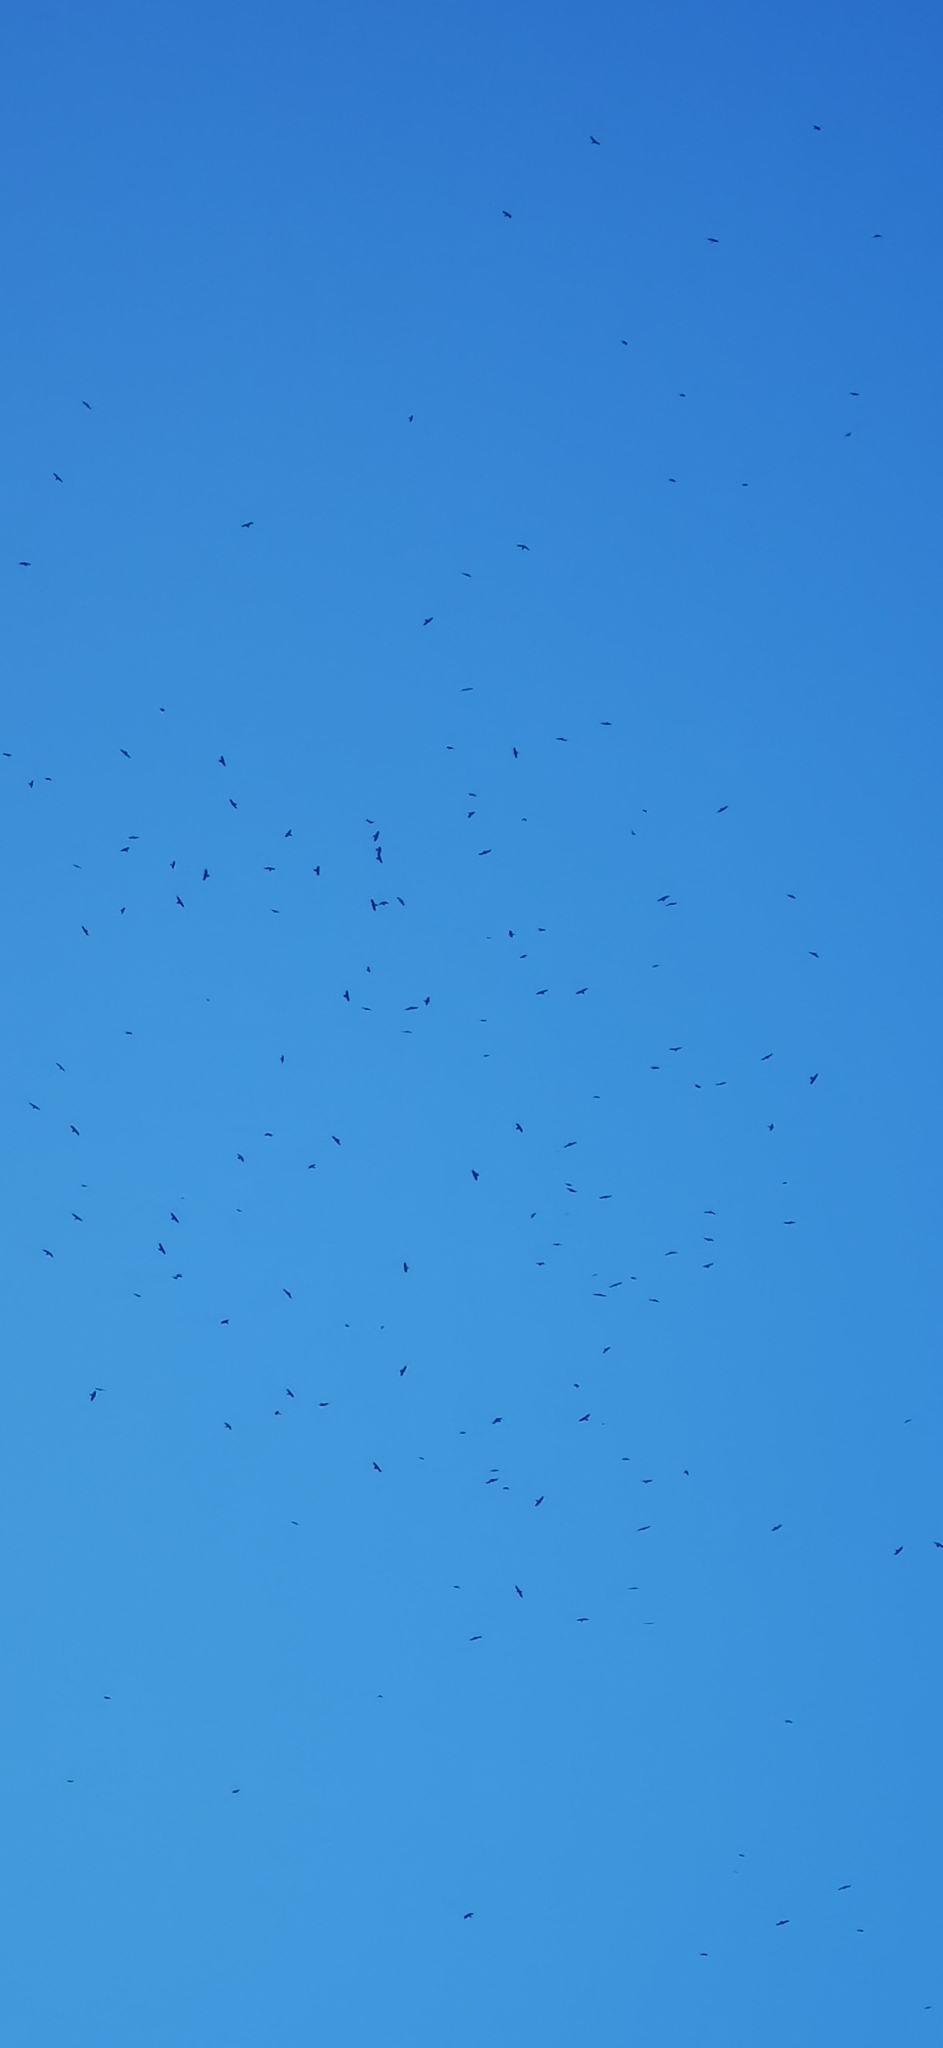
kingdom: Animalia
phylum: Chordata
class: Aves
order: Passeriformes
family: Corvidae
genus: Corvus
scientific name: Corvus frugilegus
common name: Rook
